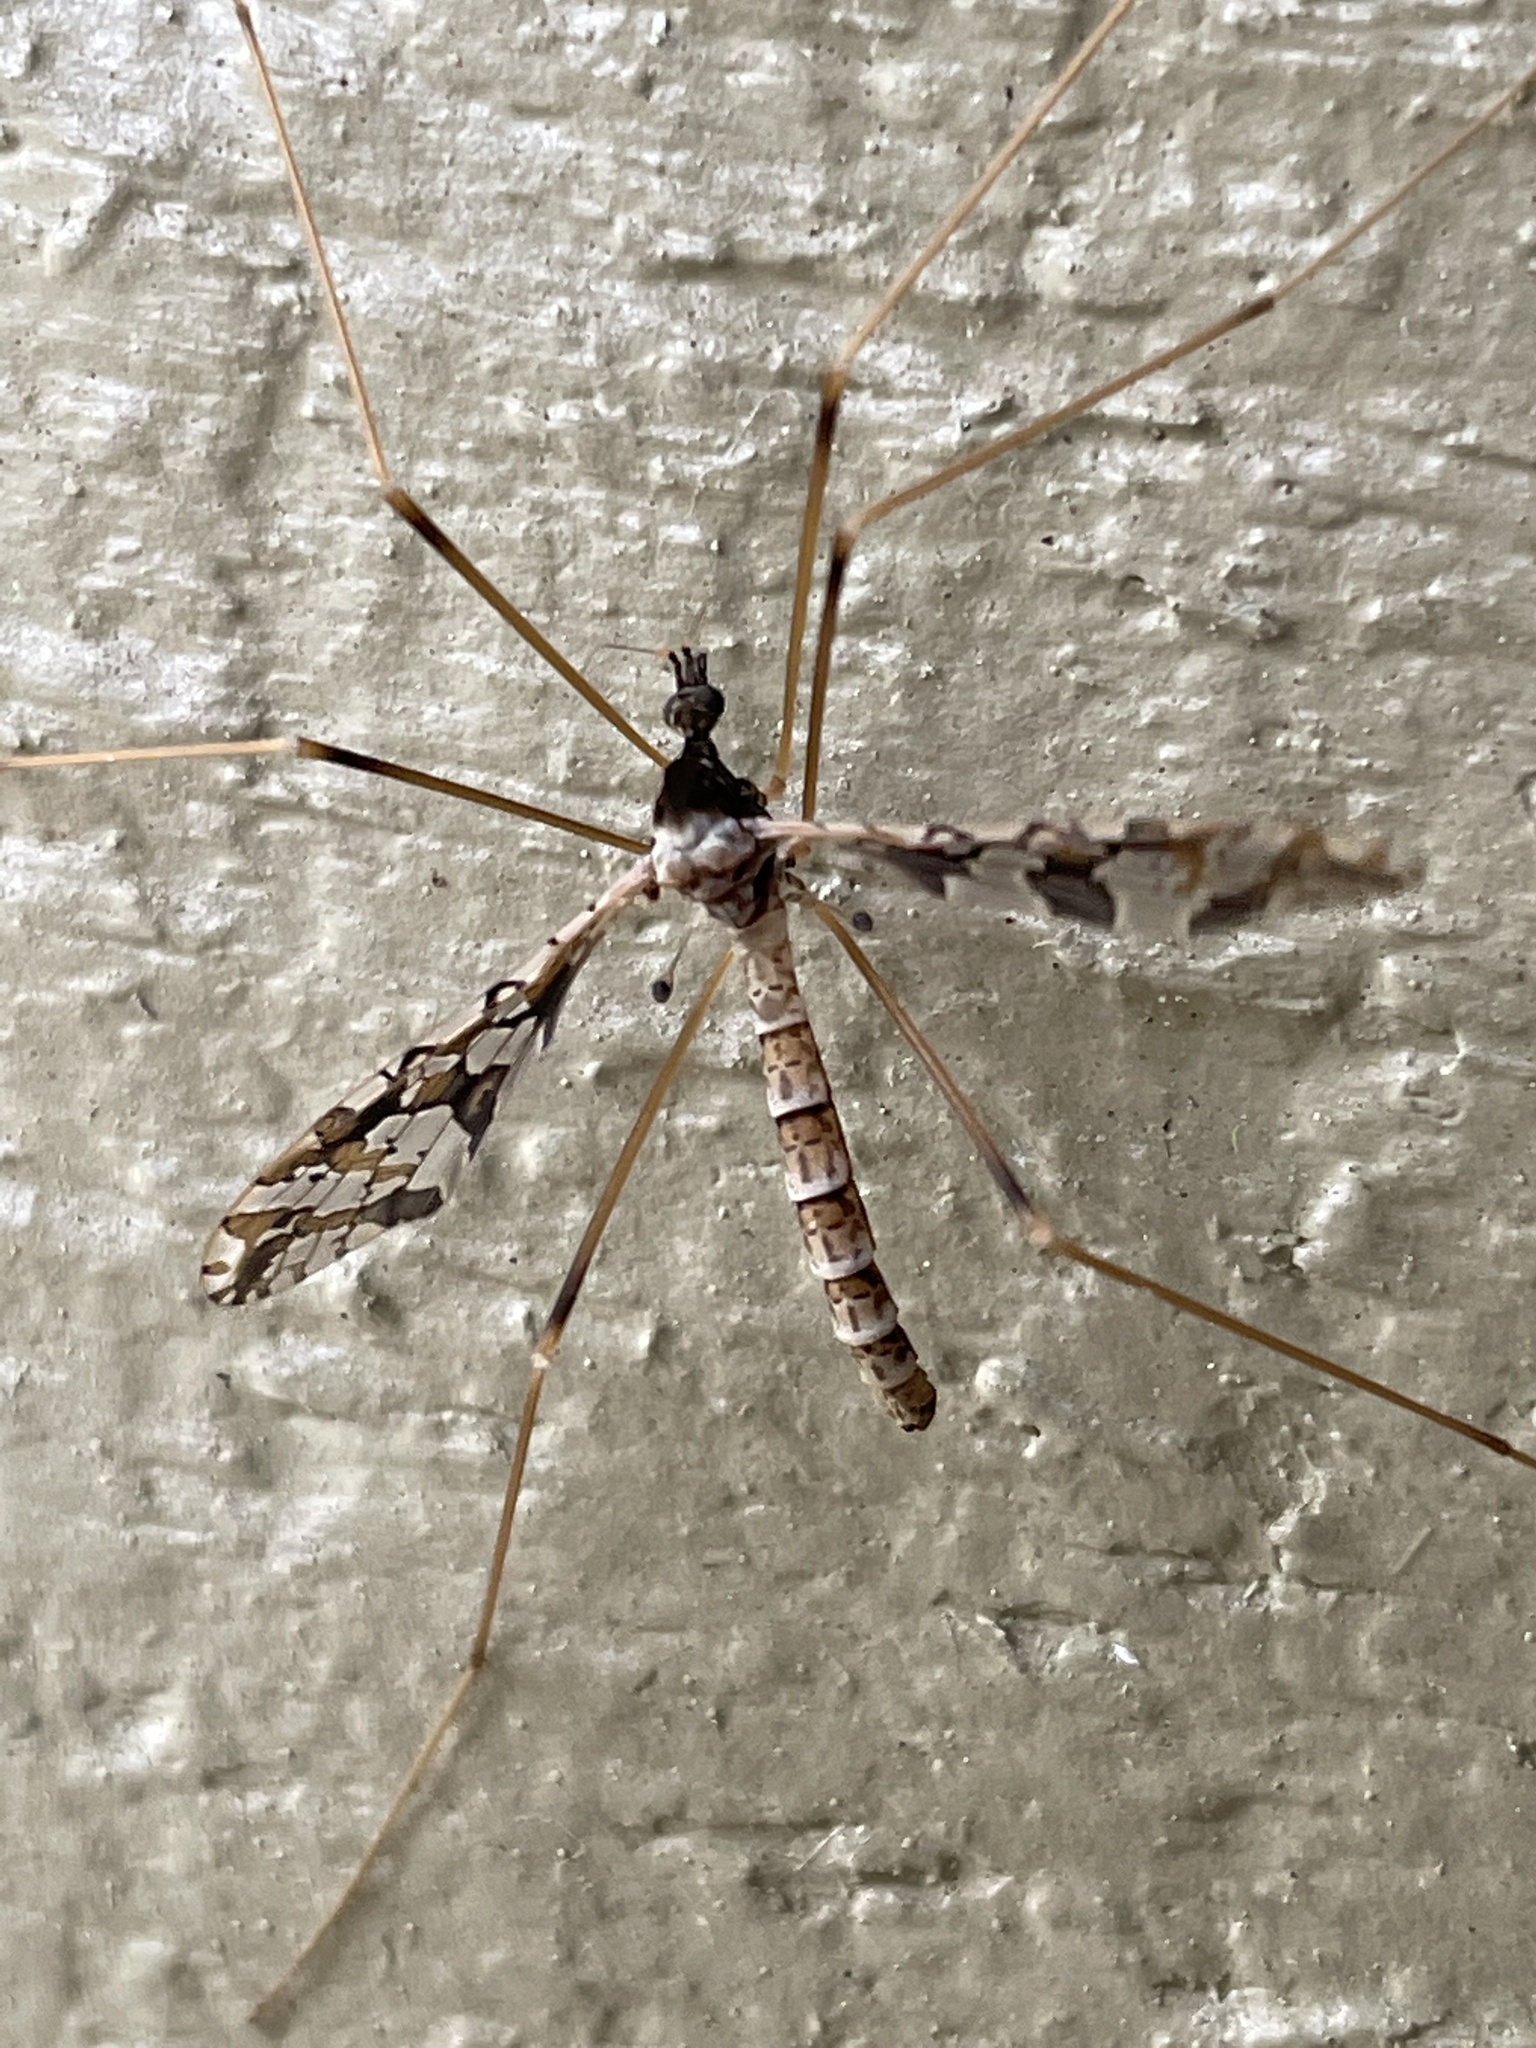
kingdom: Animalia
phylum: Arthropoda
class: Insecta
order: Diptera
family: Limoniidae
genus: Epiphragma
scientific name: Epiphragma solatrix
